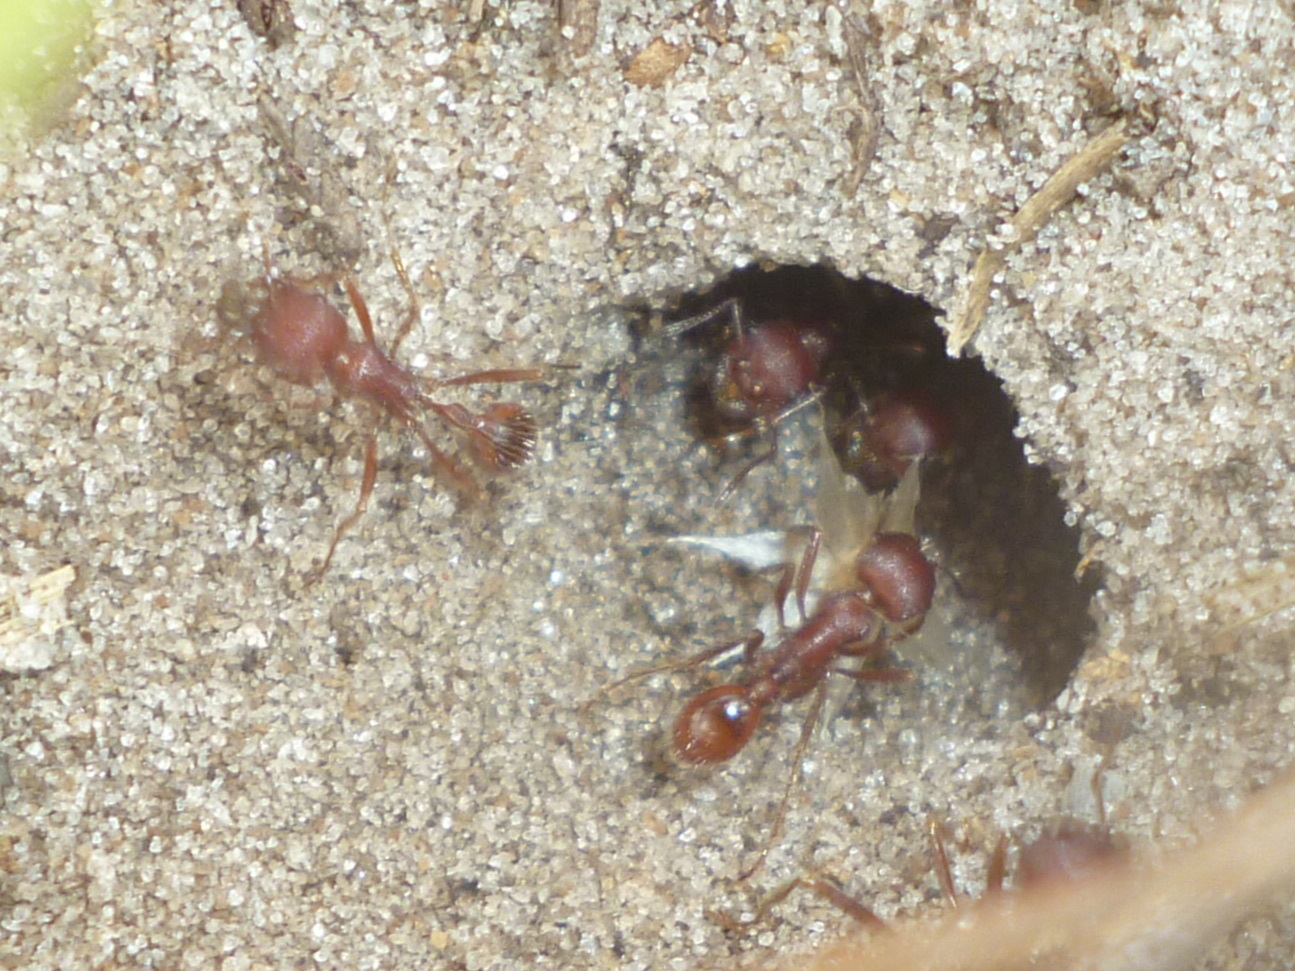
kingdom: Animalia
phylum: Arthropoda
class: Insecta
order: Hymenoptera
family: Formicidae
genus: Pogonomyrmex
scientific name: Pogonomyrmex badius
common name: Florida harvester ant
